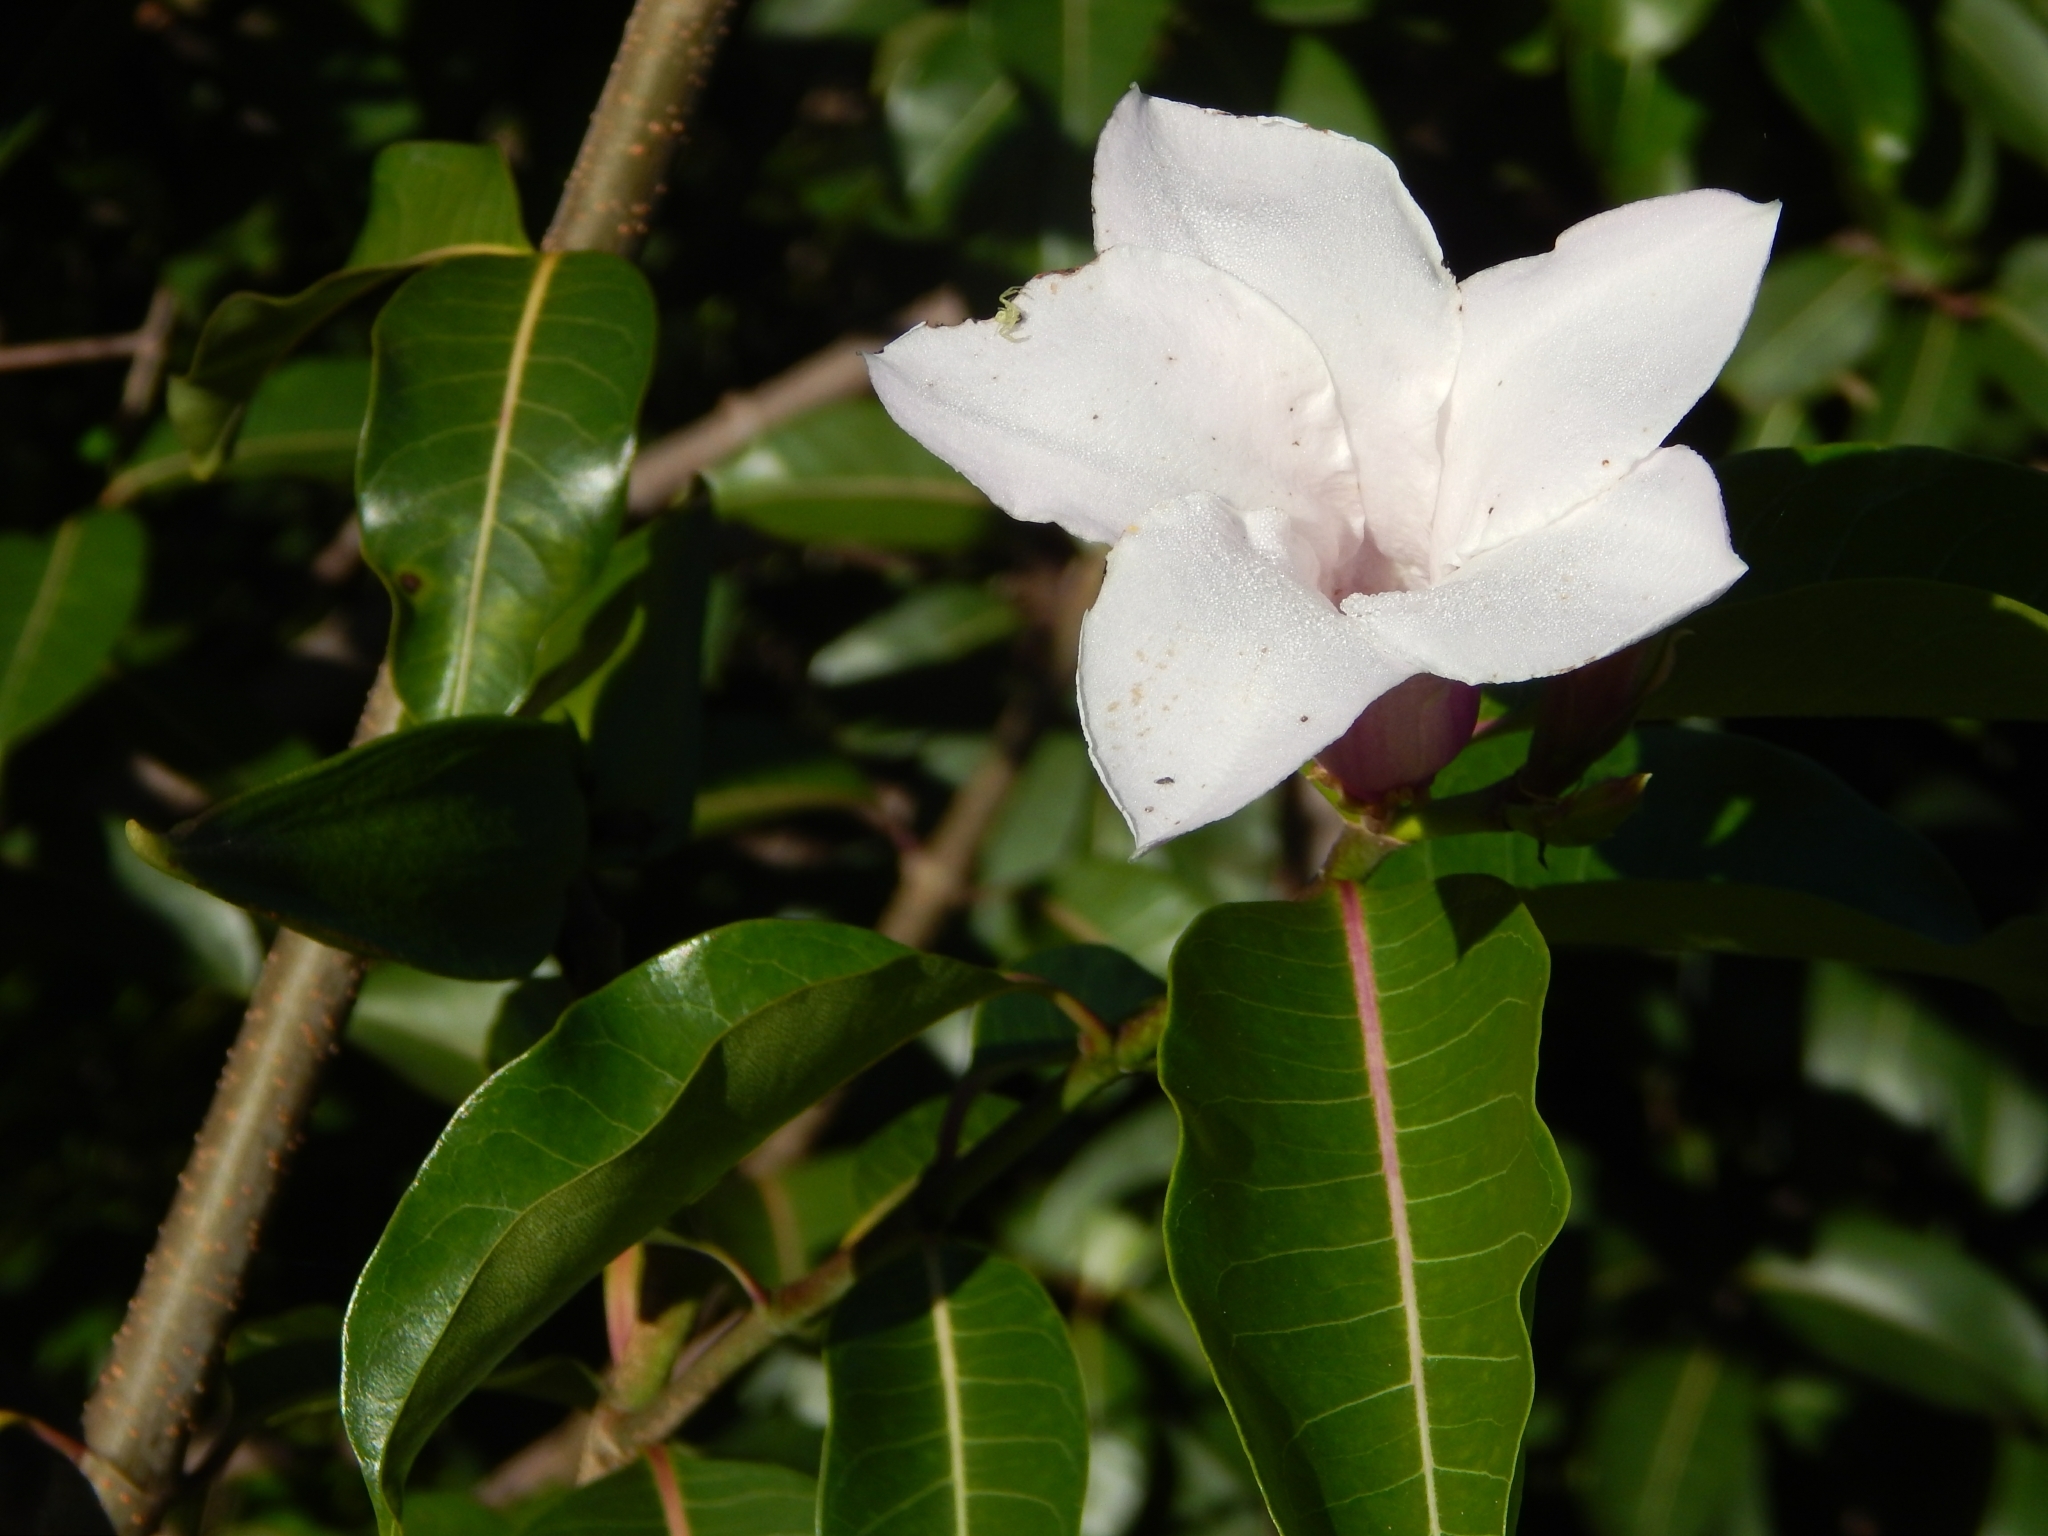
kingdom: Plantae
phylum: Tracheophyta
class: Magnoliopsida
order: Gentianales
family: Apocynaceae
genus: Cryptostegia
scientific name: Cryptostegia grandiflora
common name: Palay rubbervine
